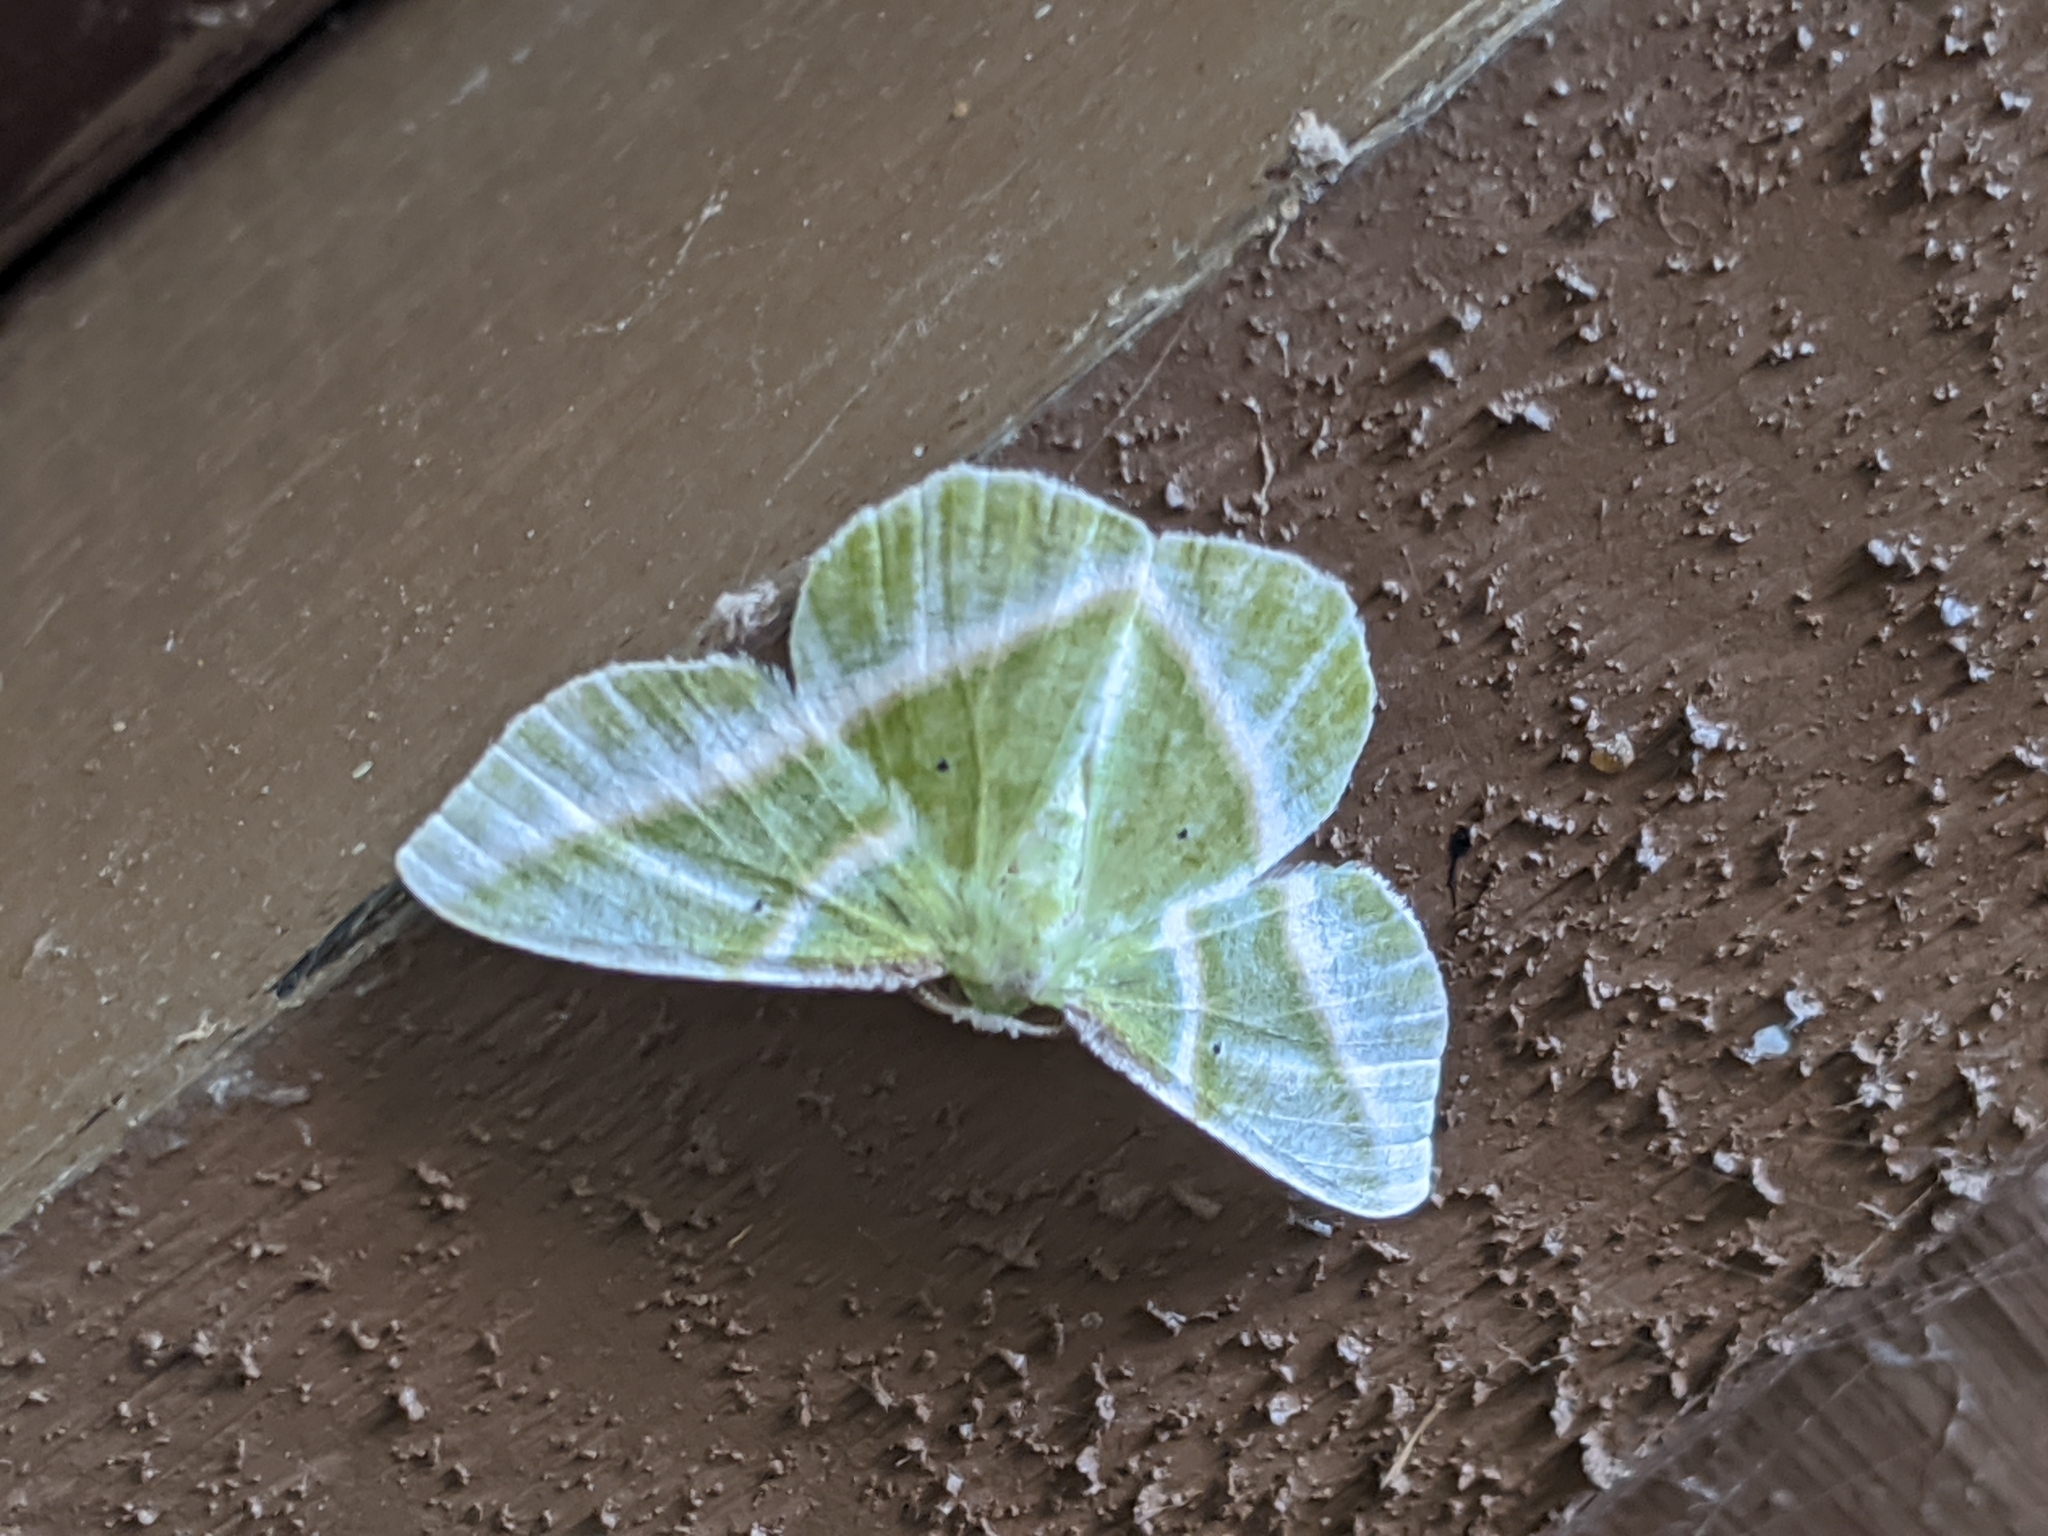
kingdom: Animalia
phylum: Arthropoda
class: Insecta
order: Lepidoptera
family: Geometridae
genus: Dichorda
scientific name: Dichorda iridaria
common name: Showy emerald
